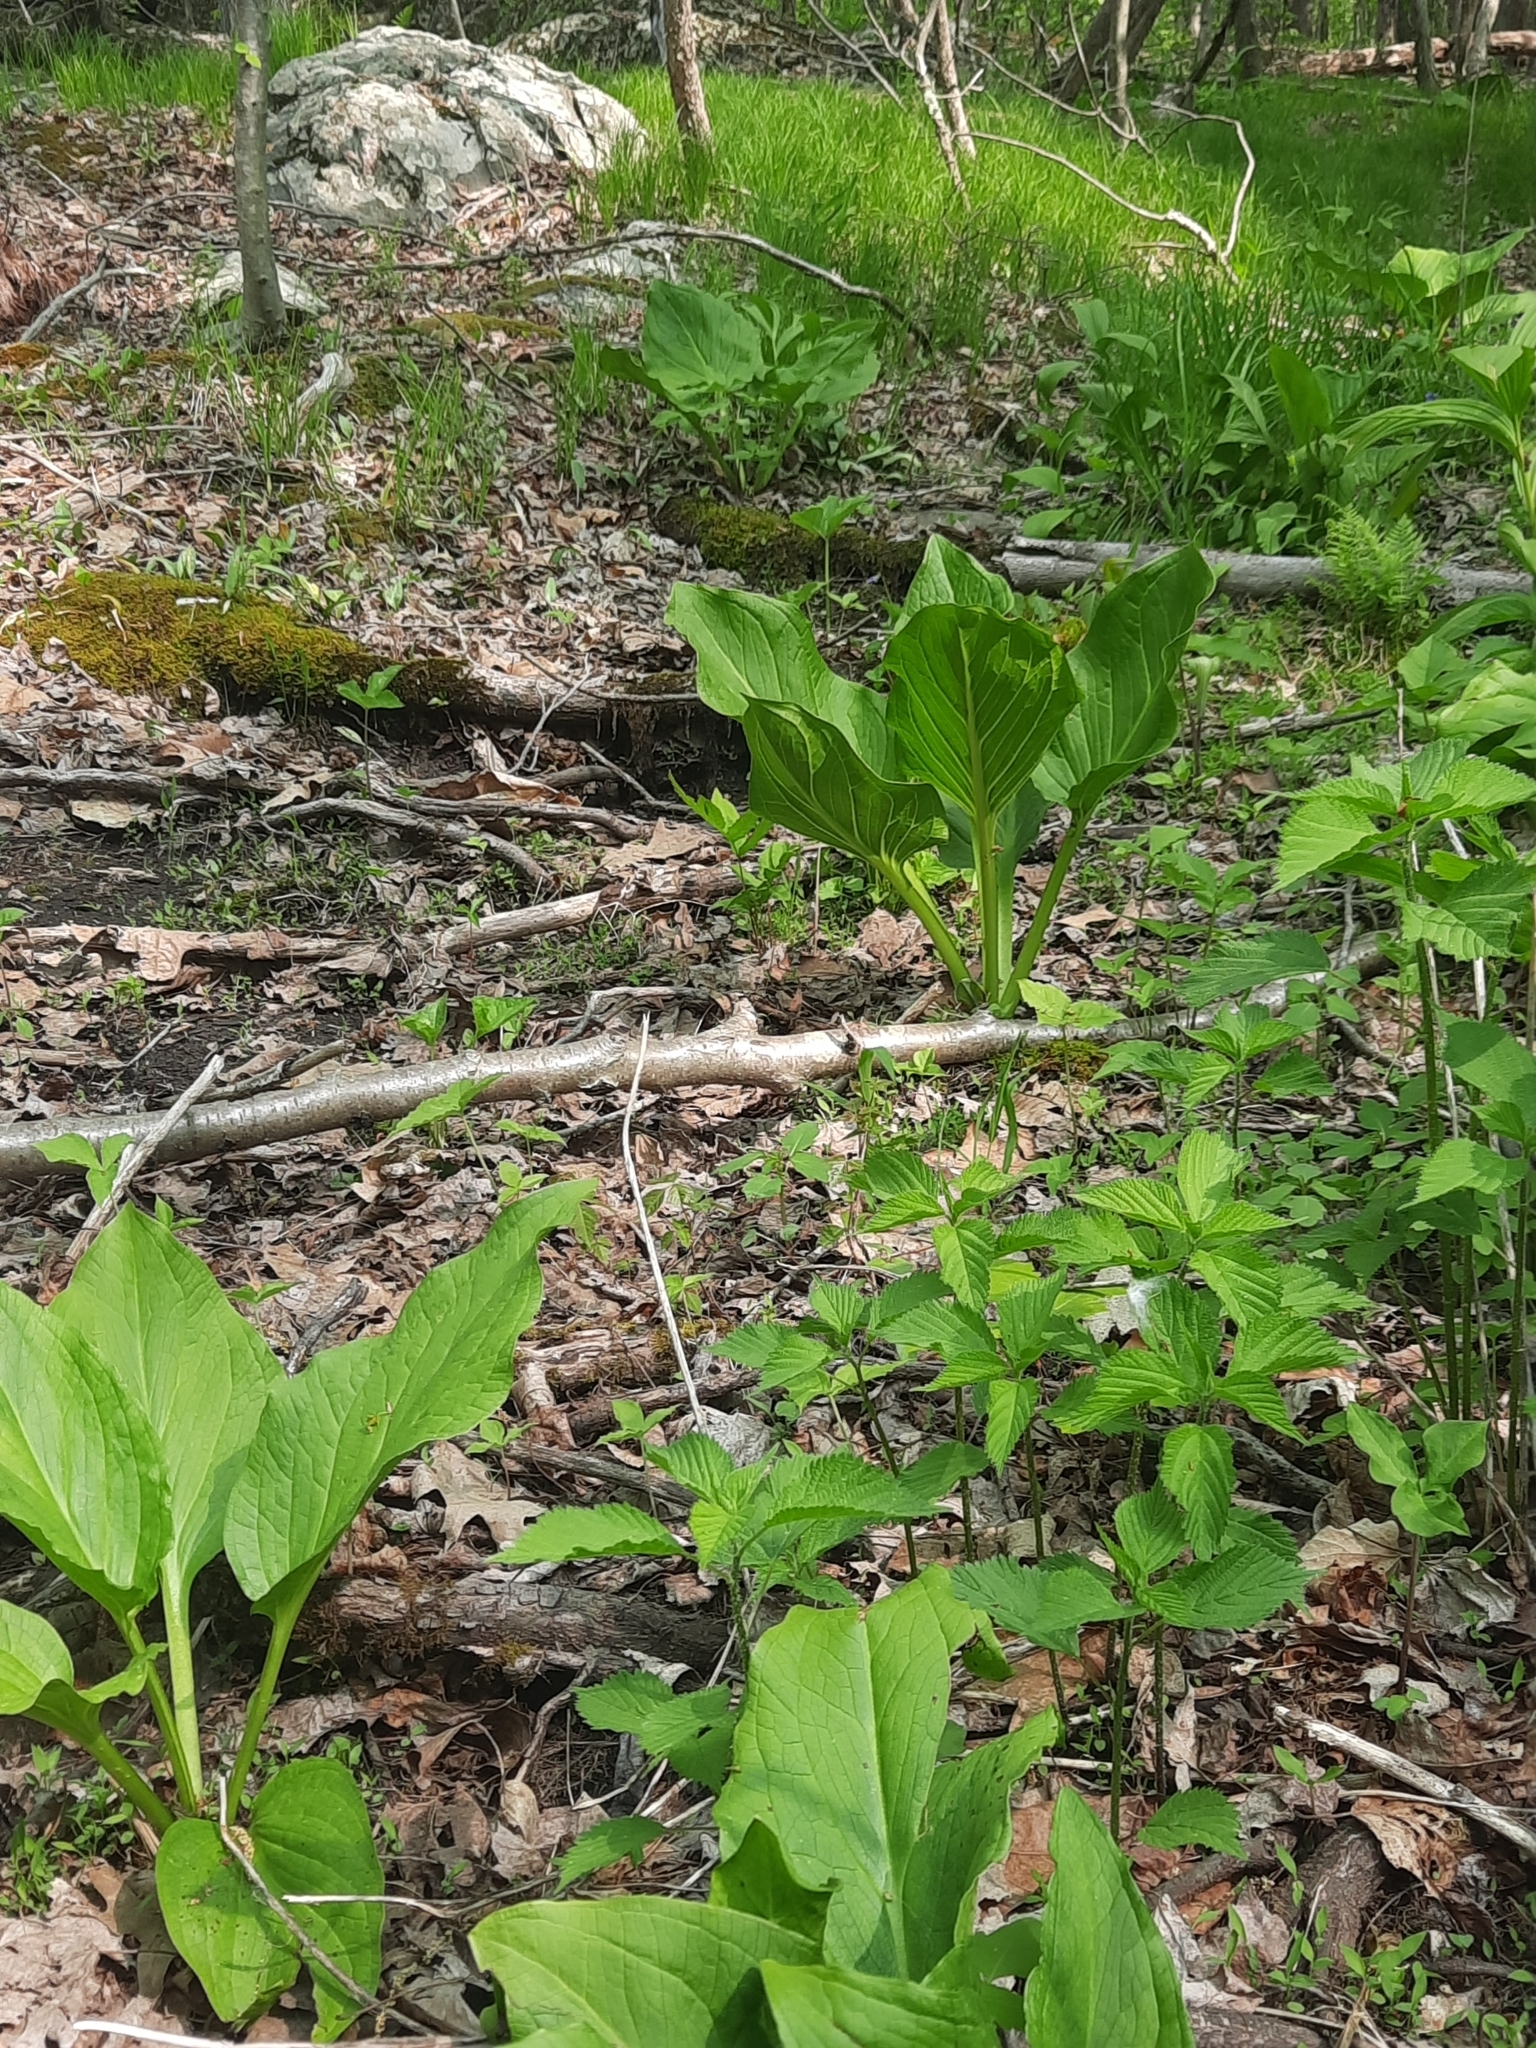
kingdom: Plantae
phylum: Tracheophyta
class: Liliopsida
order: Alismatales
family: Araceae
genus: Symplocarpus
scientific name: Symplocarpus foetidus
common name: Eastern skunk cabbage
